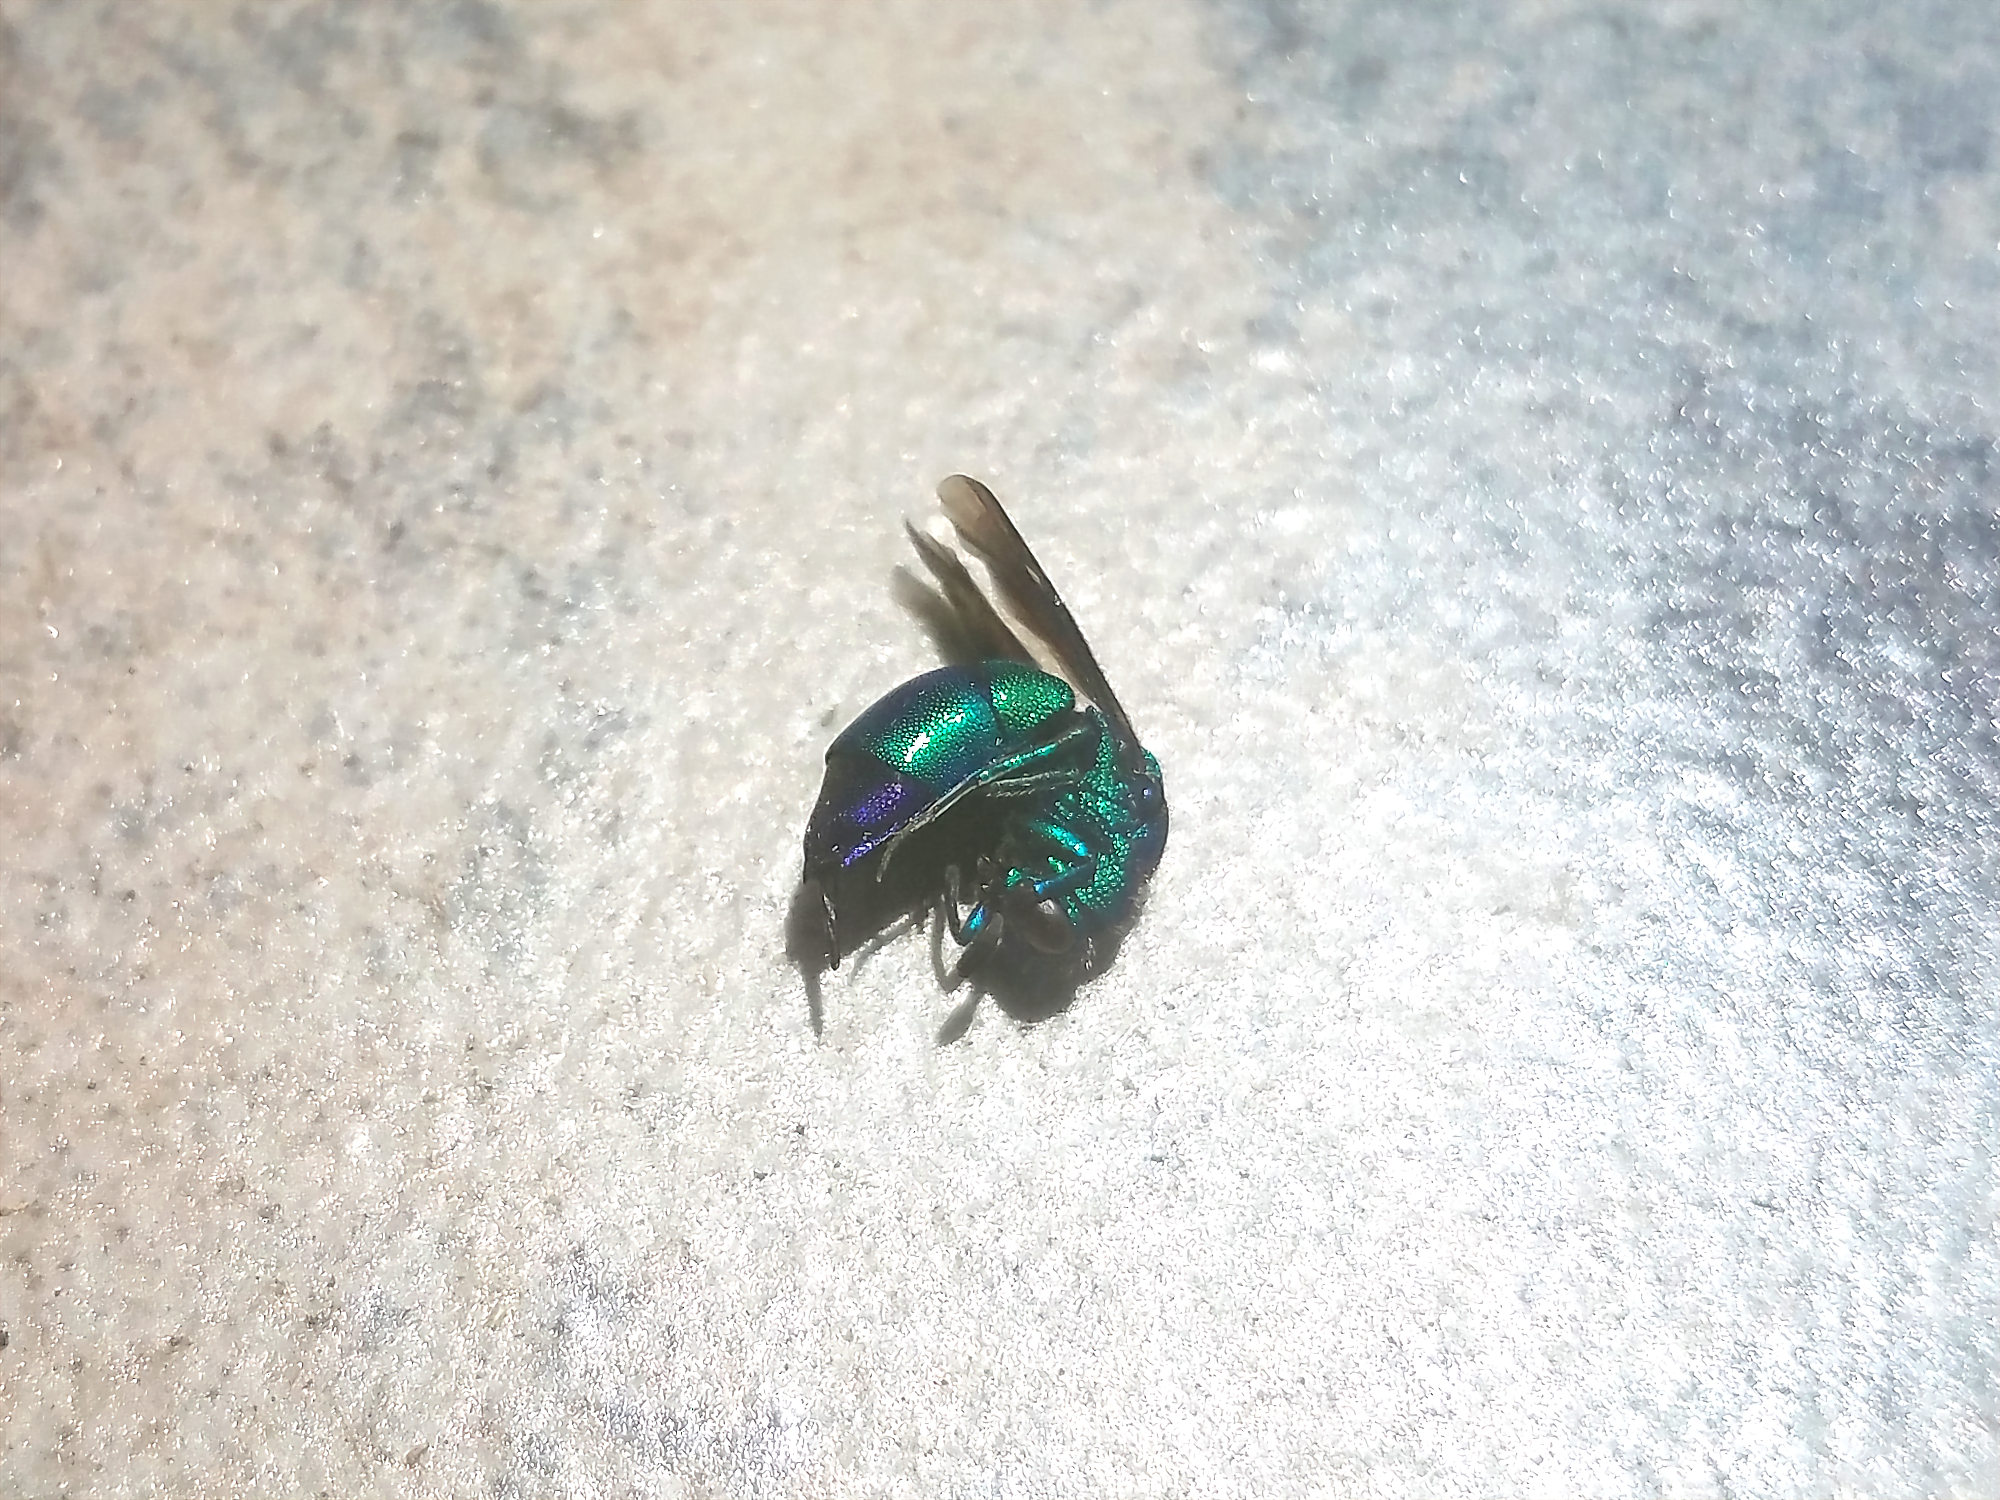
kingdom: Animalia
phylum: Arthropoda
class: Insecta
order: Hymenoptera
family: Chrysididae
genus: Chrysis
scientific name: Chrysis angolensis
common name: Cuckoo wasp
